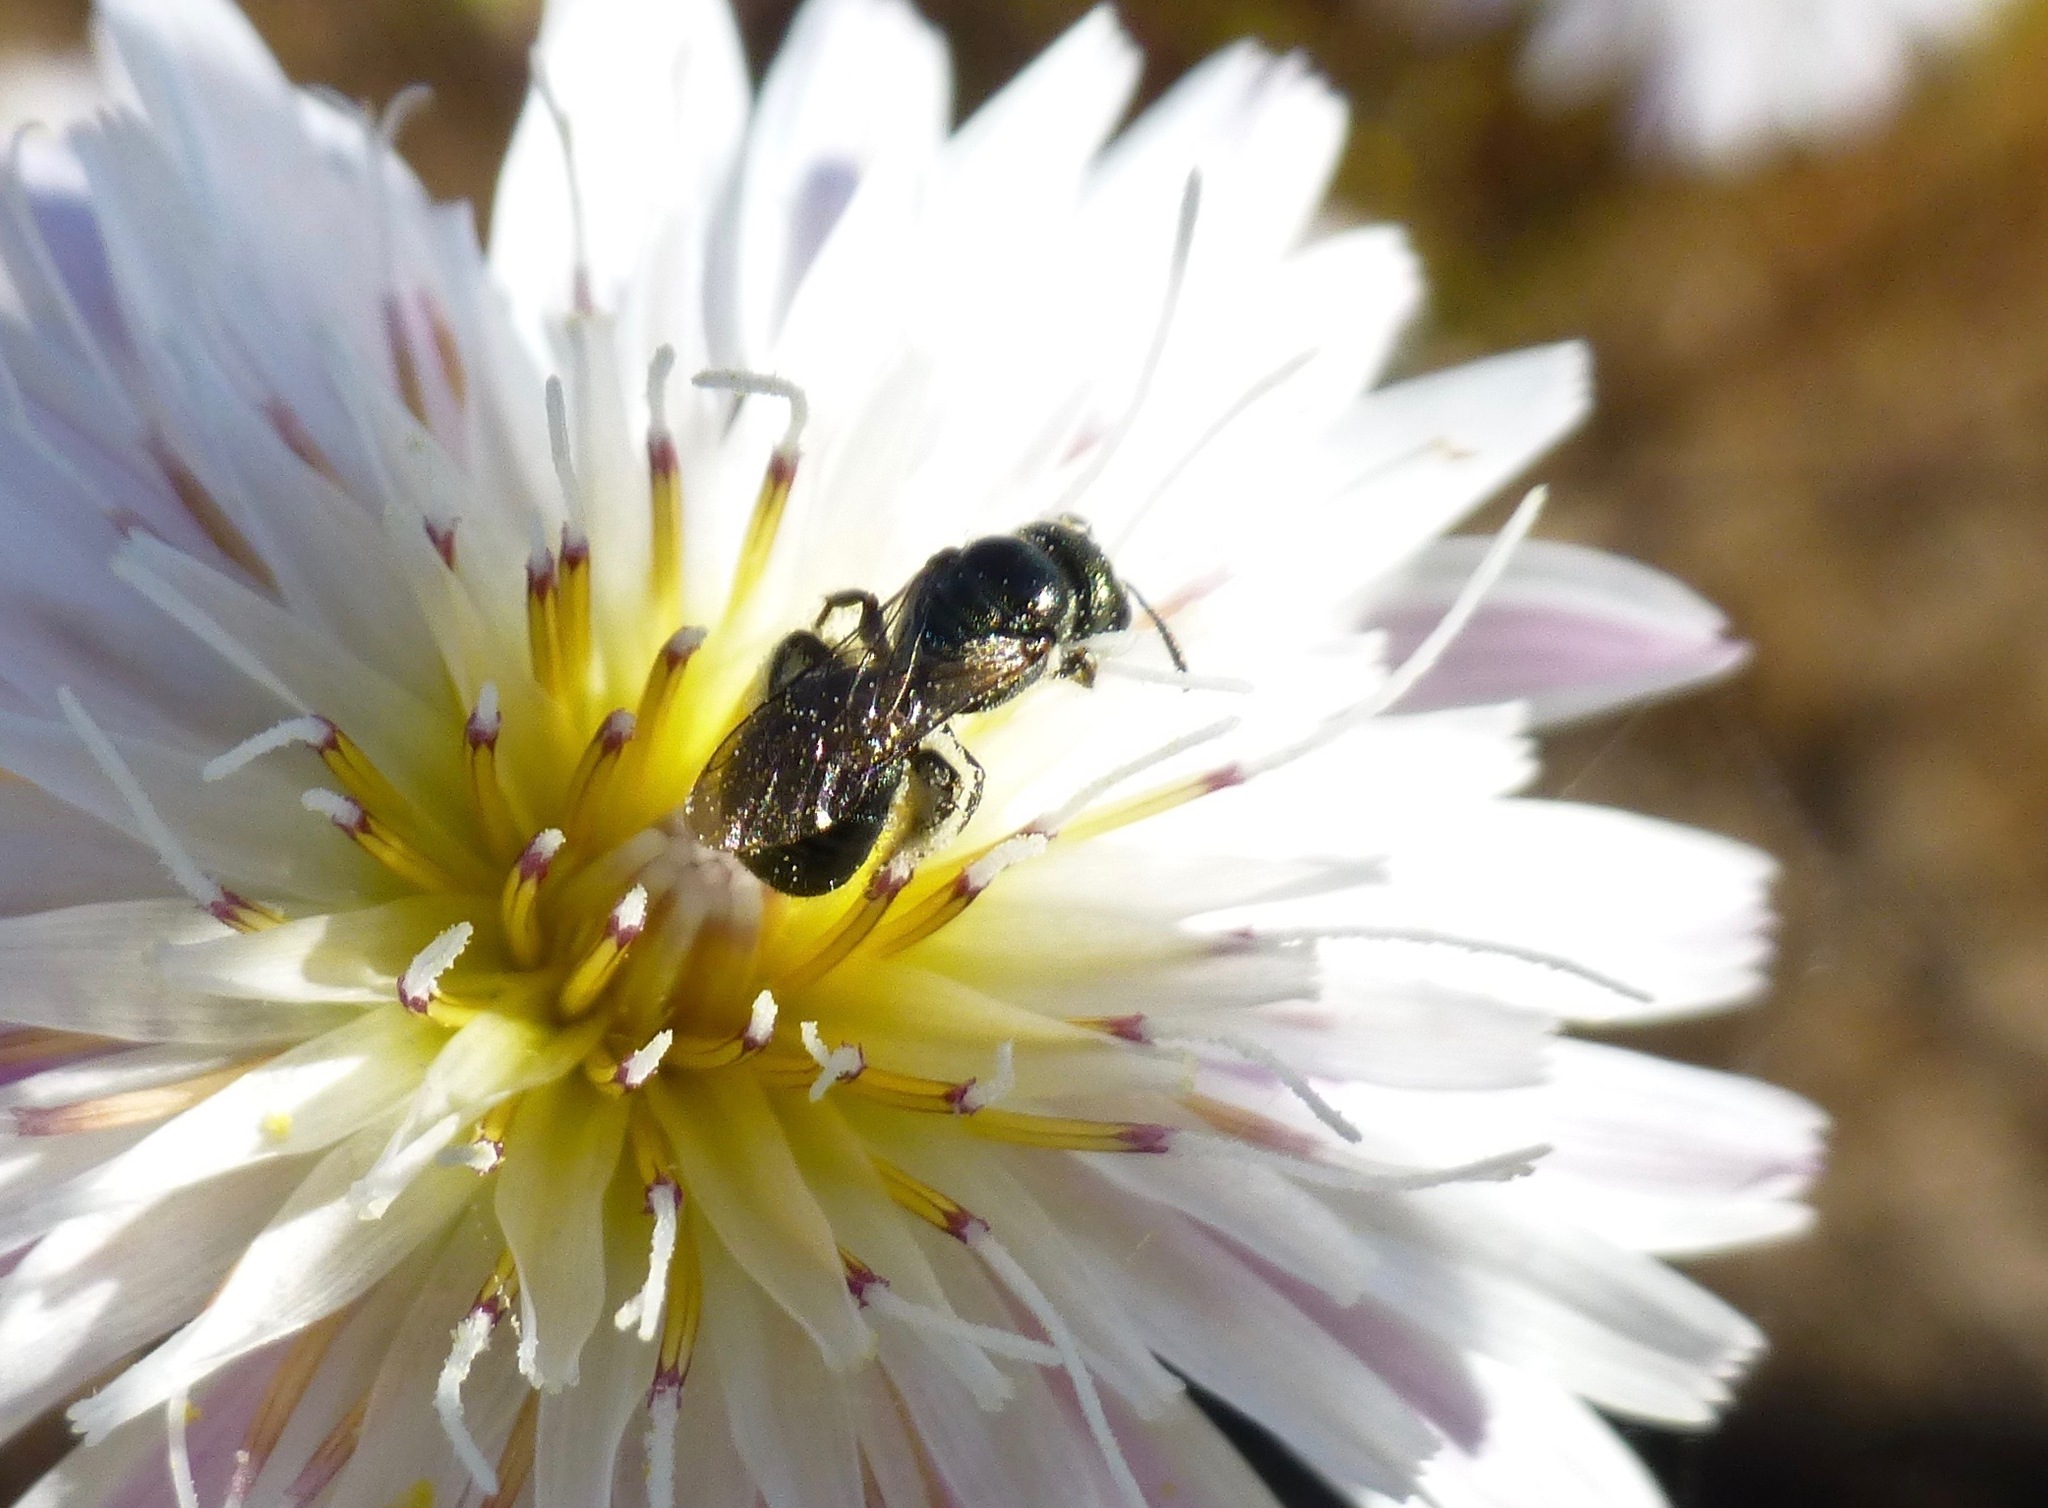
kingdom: Plantae
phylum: Tracheophyta
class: Magnoliopsida
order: Asterales
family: Asteraceae
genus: Malacothrix
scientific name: Malacothrix saxatilis
